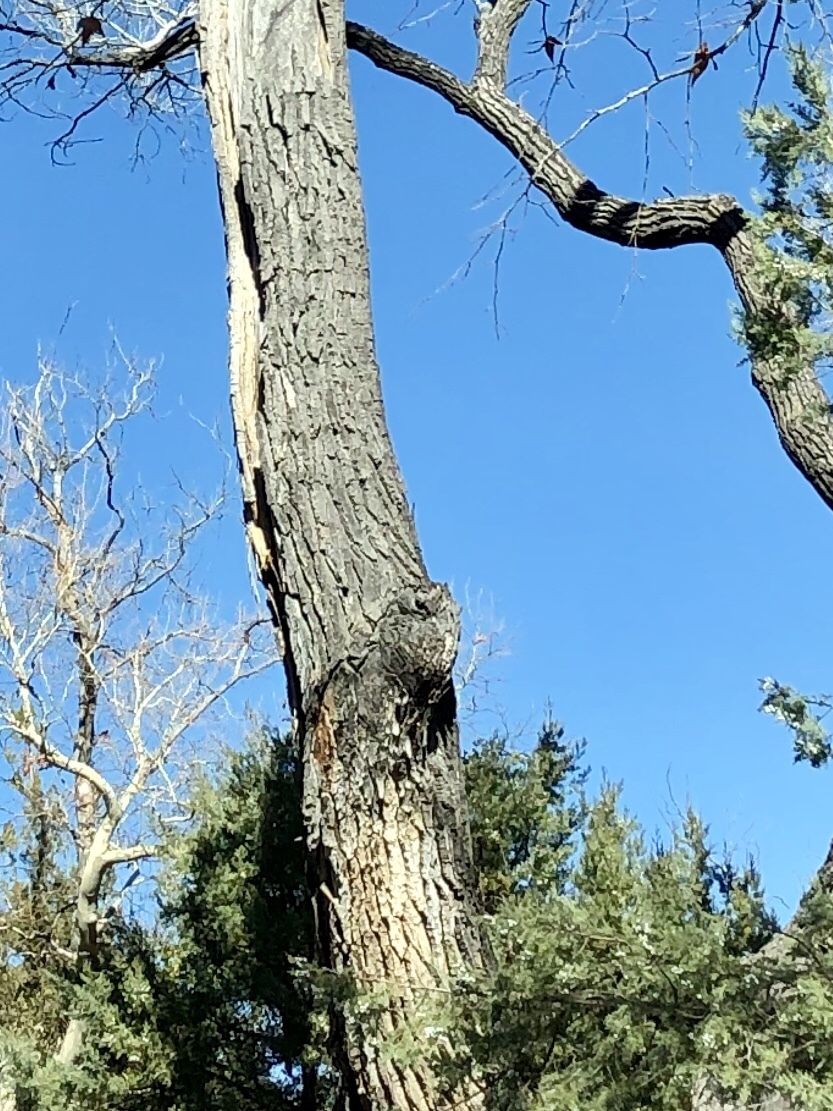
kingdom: Plantae
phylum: Tracheophyta
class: Magnoliopsida
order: Malpighiales
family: Salicaceae
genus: Populus
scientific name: Populus fremontii
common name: Fremont's cottonwood
